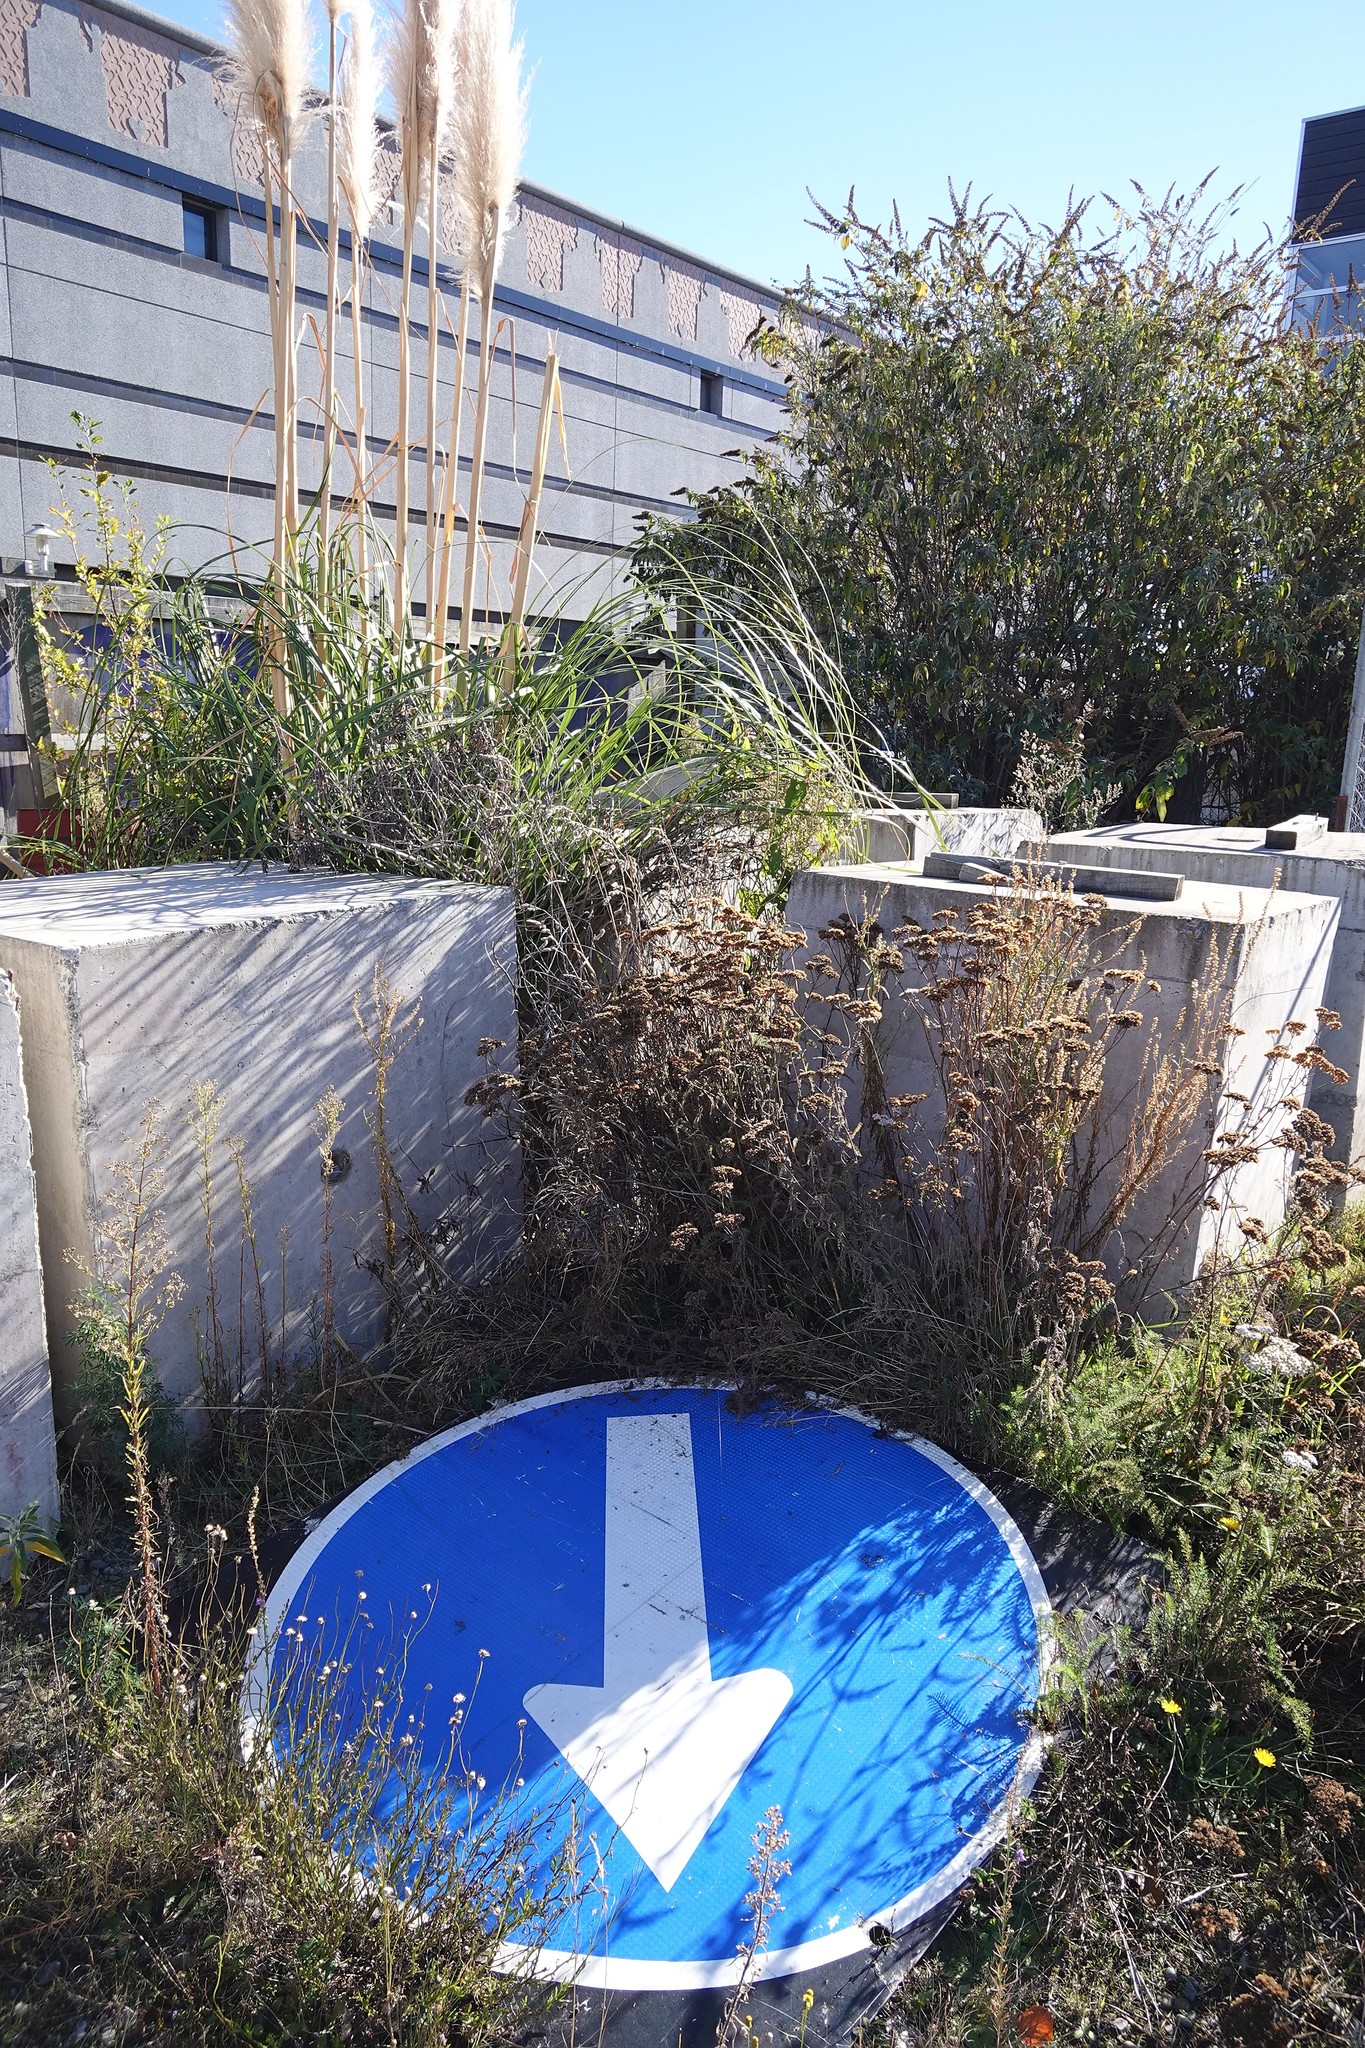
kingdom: Plantae
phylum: Tracheophyta
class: Magnoliopsida
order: Lamiales
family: Scrophulariaceae
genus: Buddleja
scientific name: Buddleja davidii
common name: Butterfly-bush
